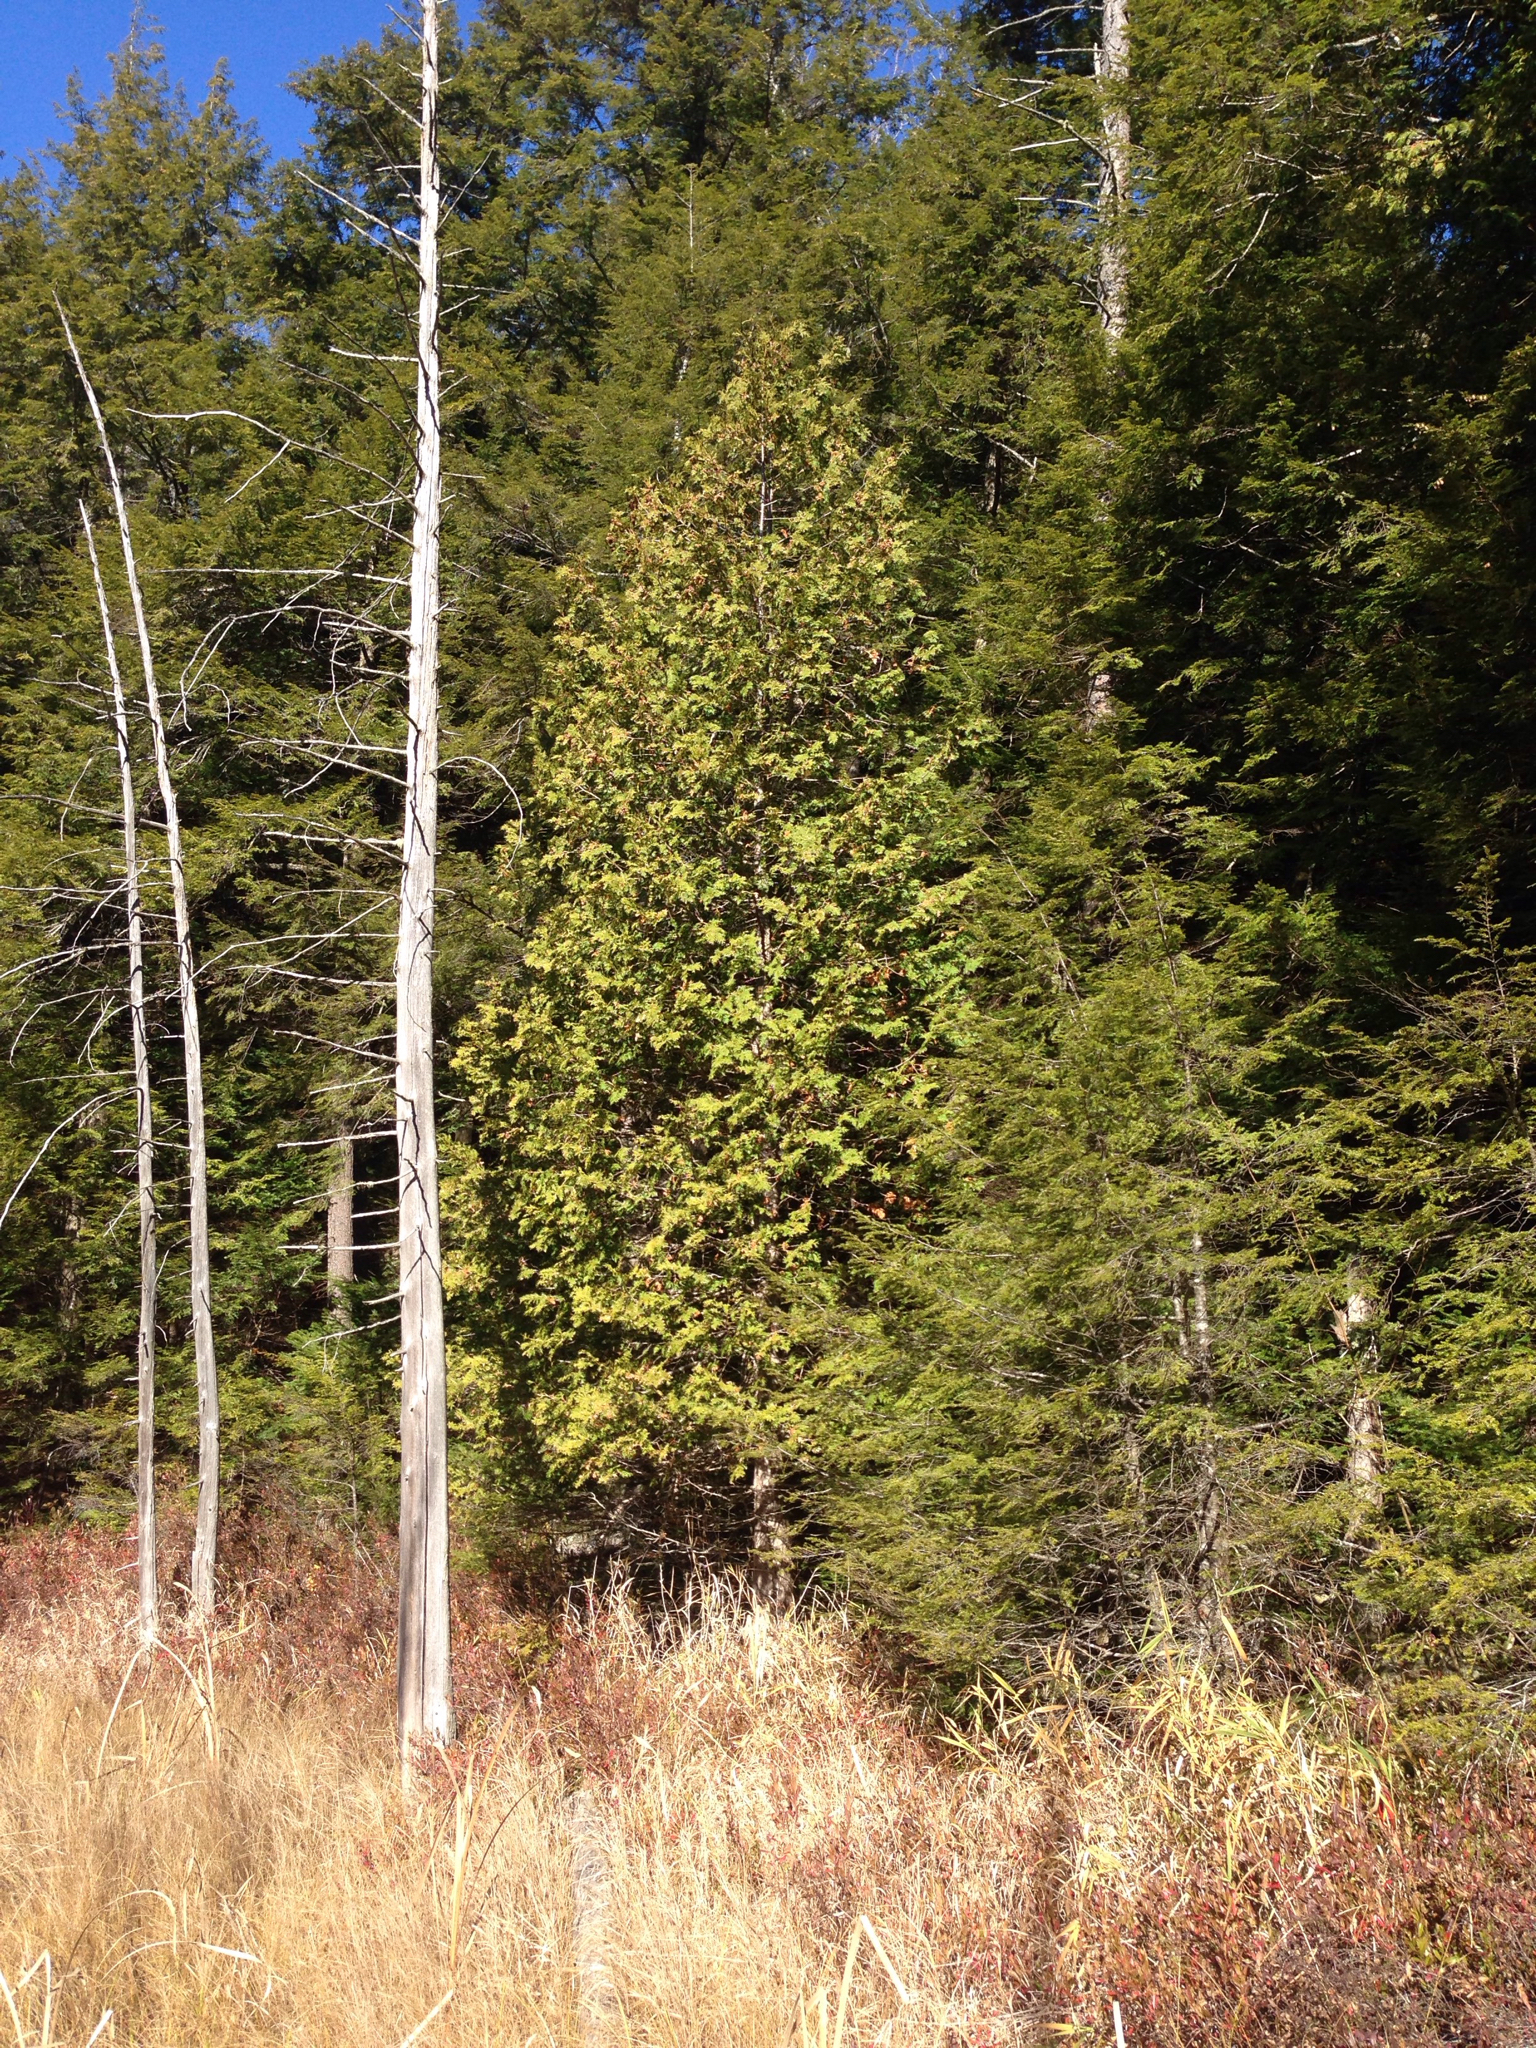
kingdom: Plantae
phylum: Tracheophyta
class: Pinopsida
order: Pinales
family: Cupressaceae
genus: Thuja
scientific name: Thuja occidentalis
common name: Northern white-cedar
